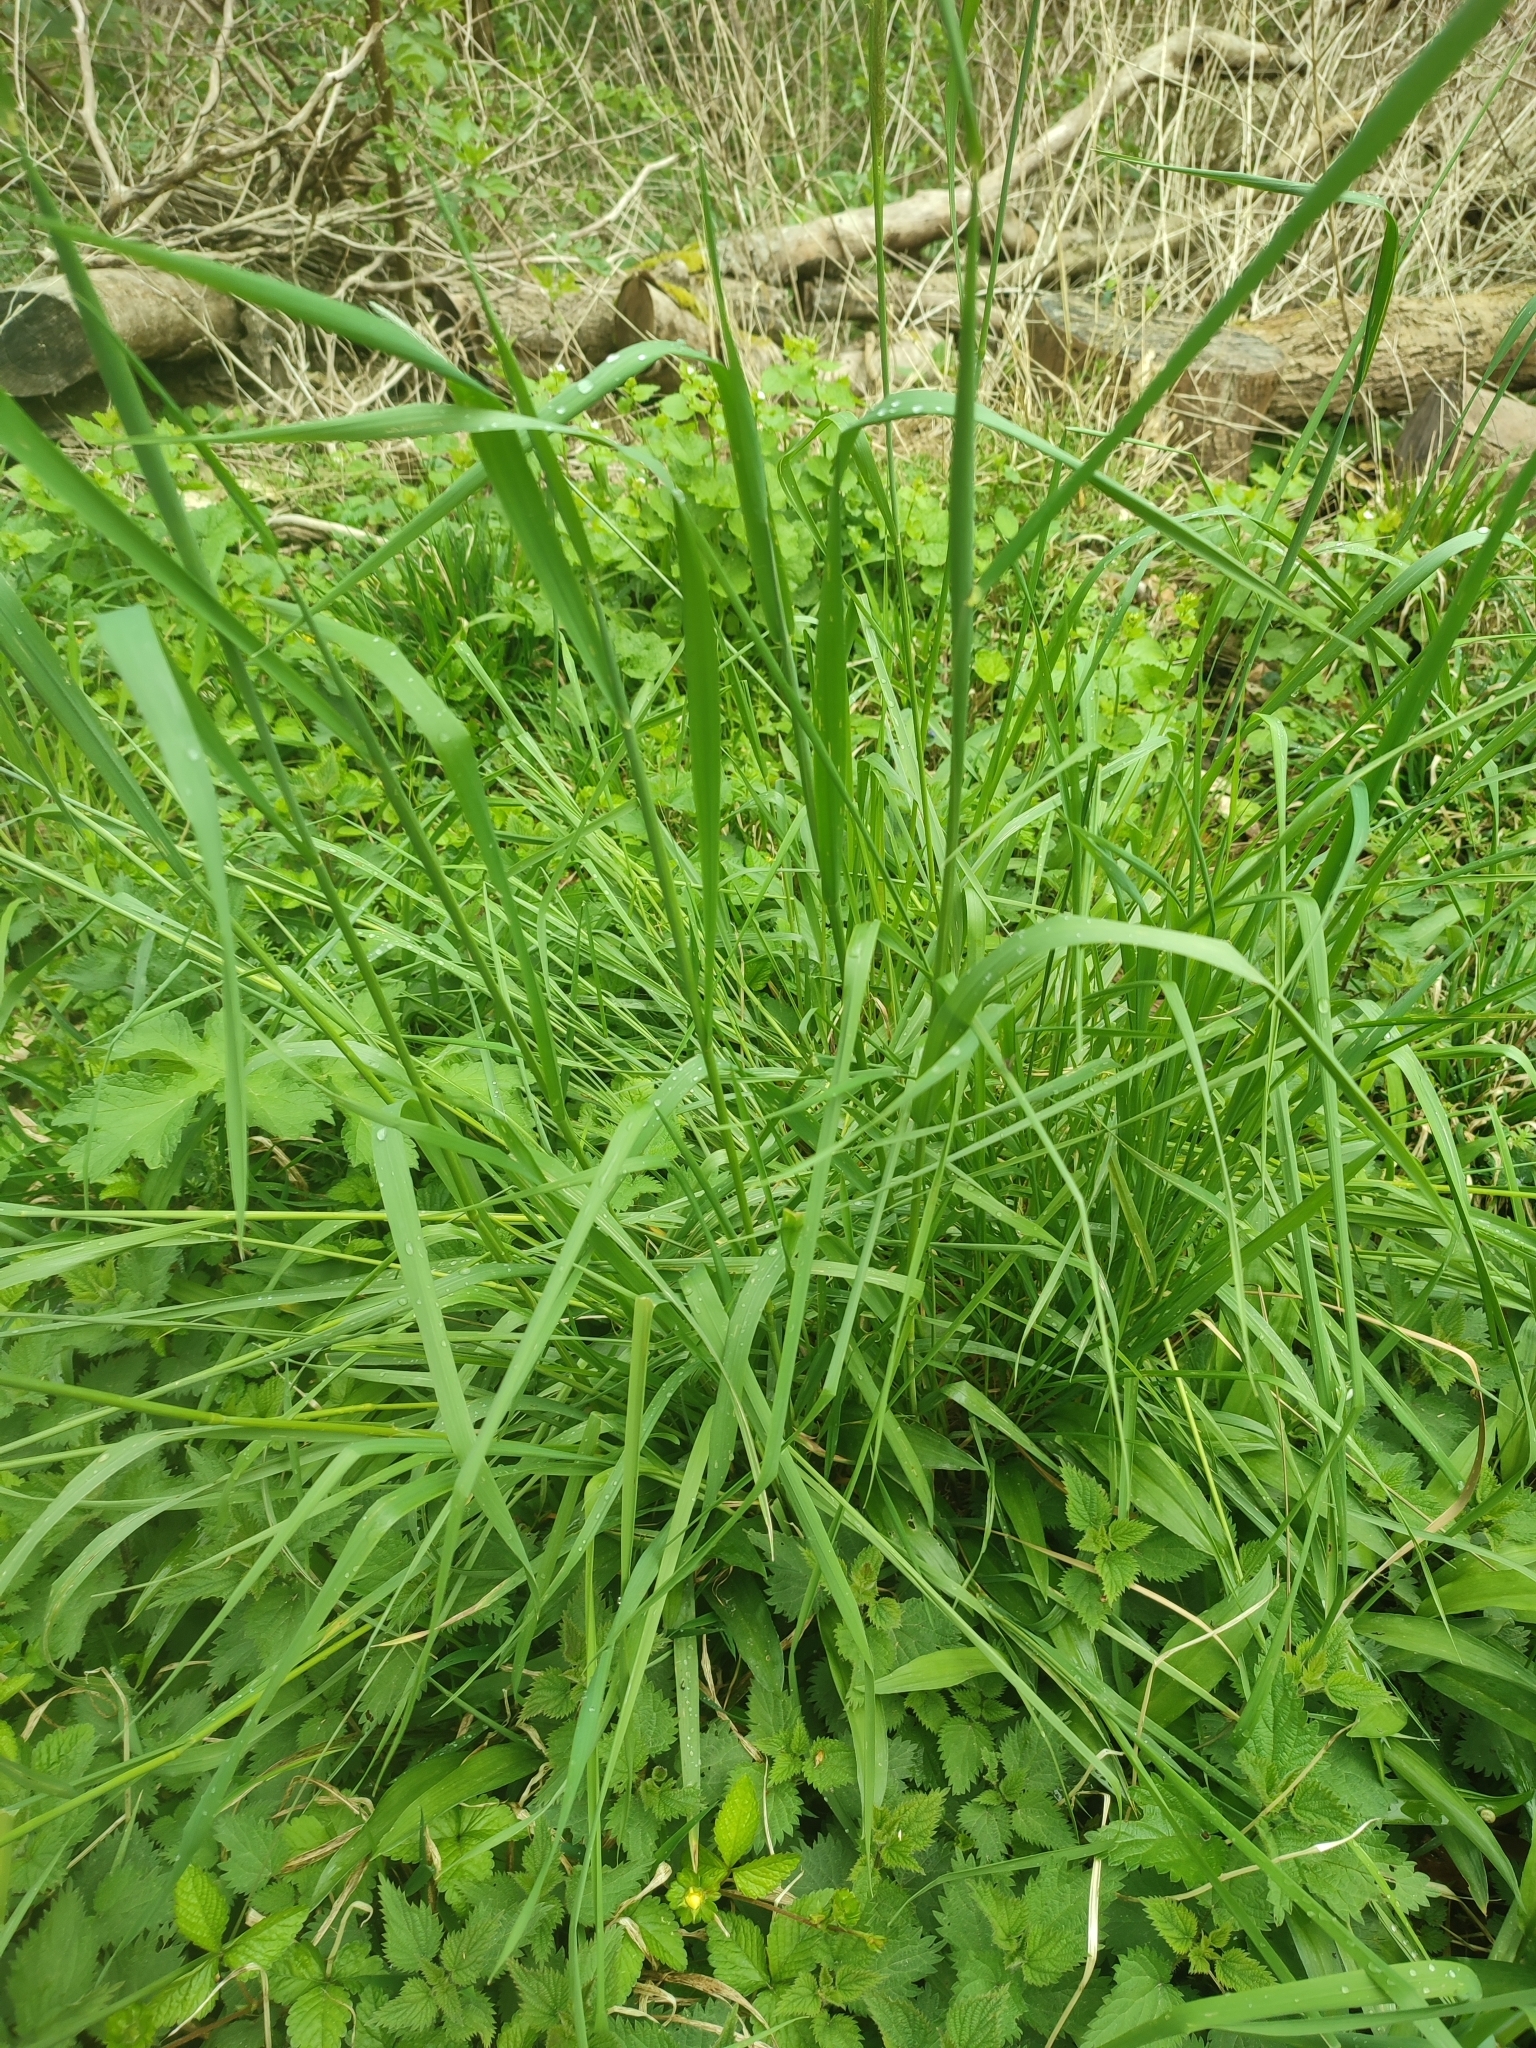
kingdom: Plantae
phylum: Tracheophyta
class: Liliopsida
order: Poales
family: Poaceae
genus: Alopecurus
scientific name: Alopecurus pratensis
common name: Meadow foxtail
